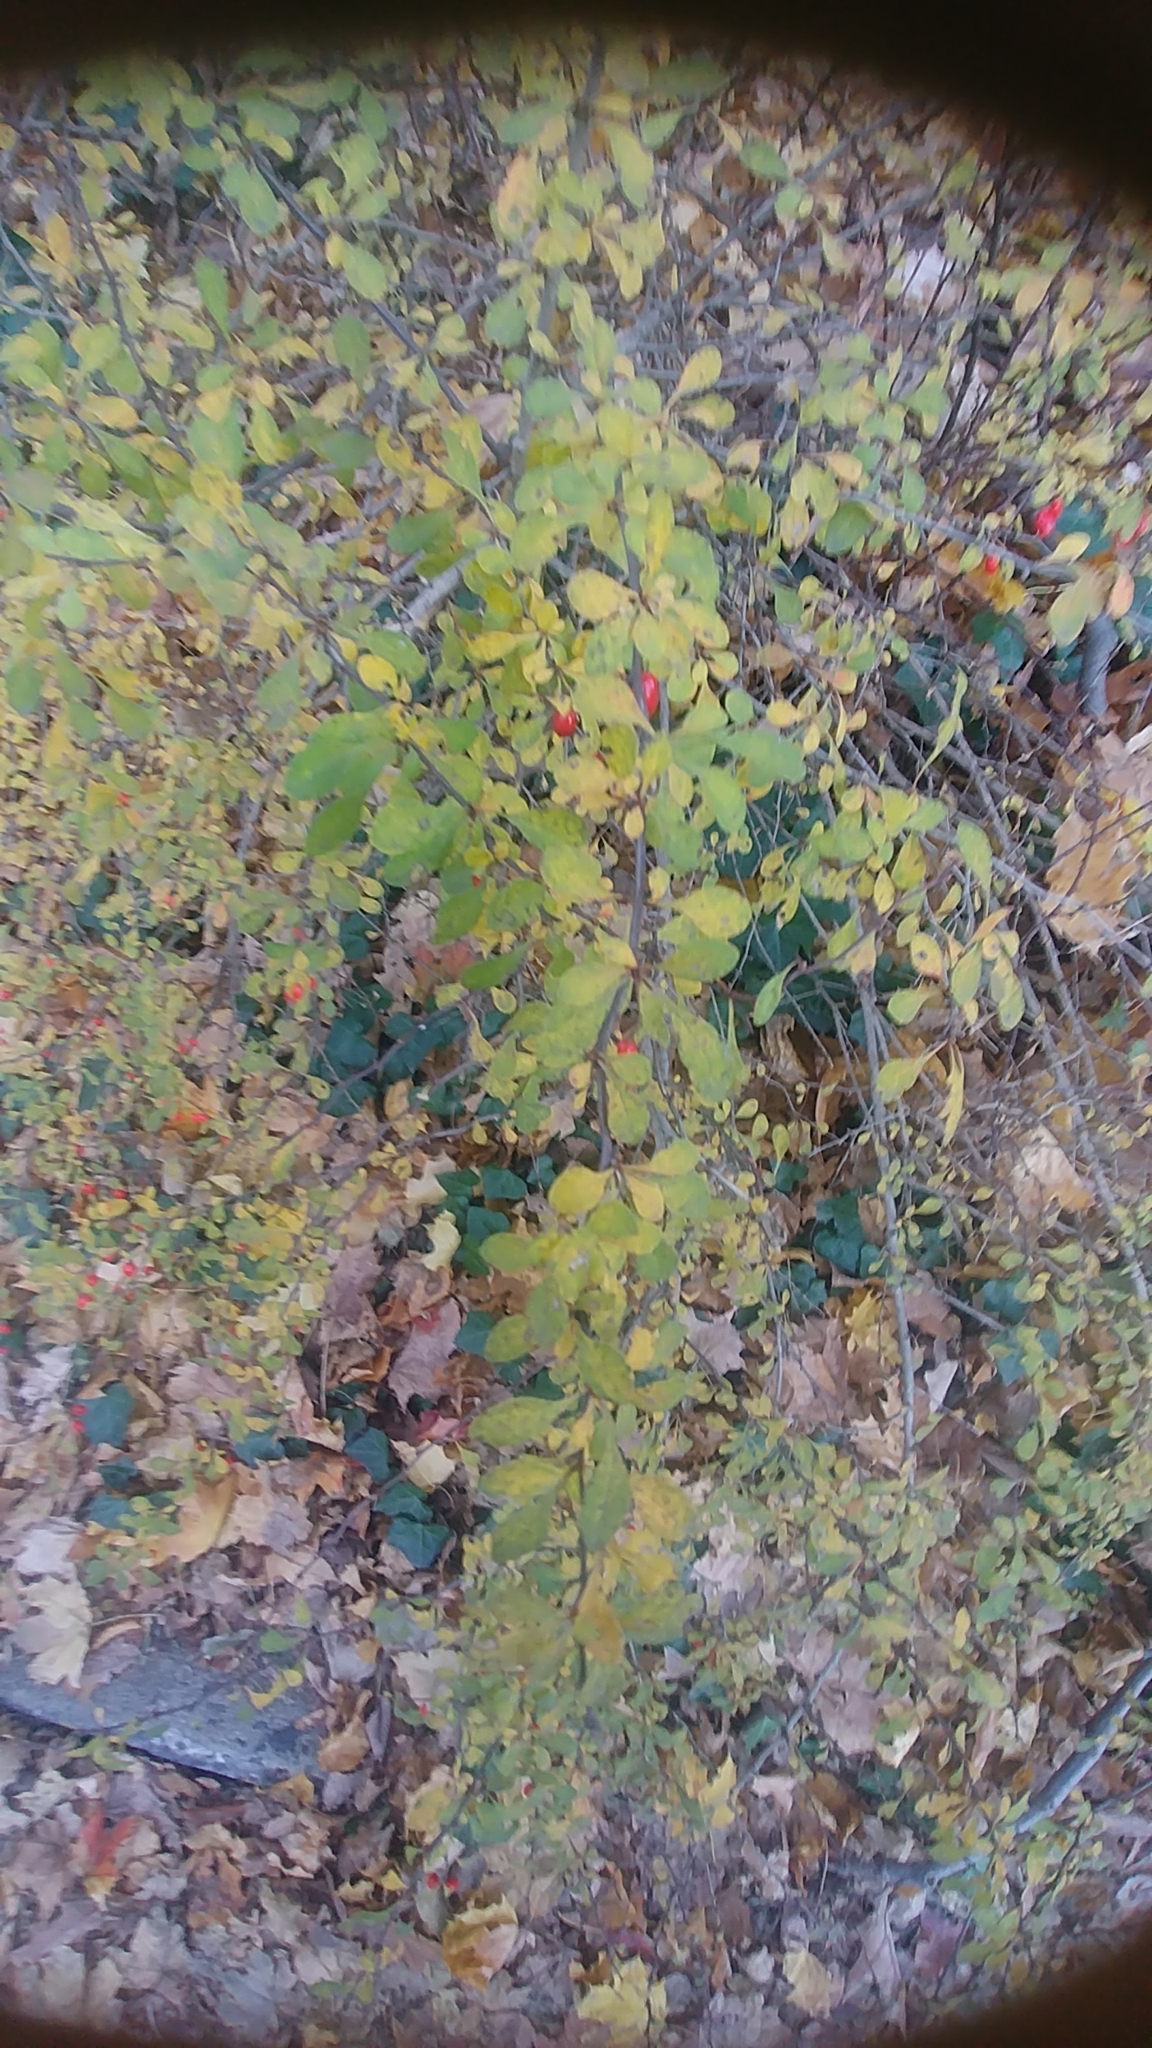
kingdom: Plantae
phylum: Tracheophyta
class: Magnoliopsida
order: Ranunculales
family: Berberidaceae
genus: Berberis
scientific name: Berberis thunbergii
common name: Japanese barberry
